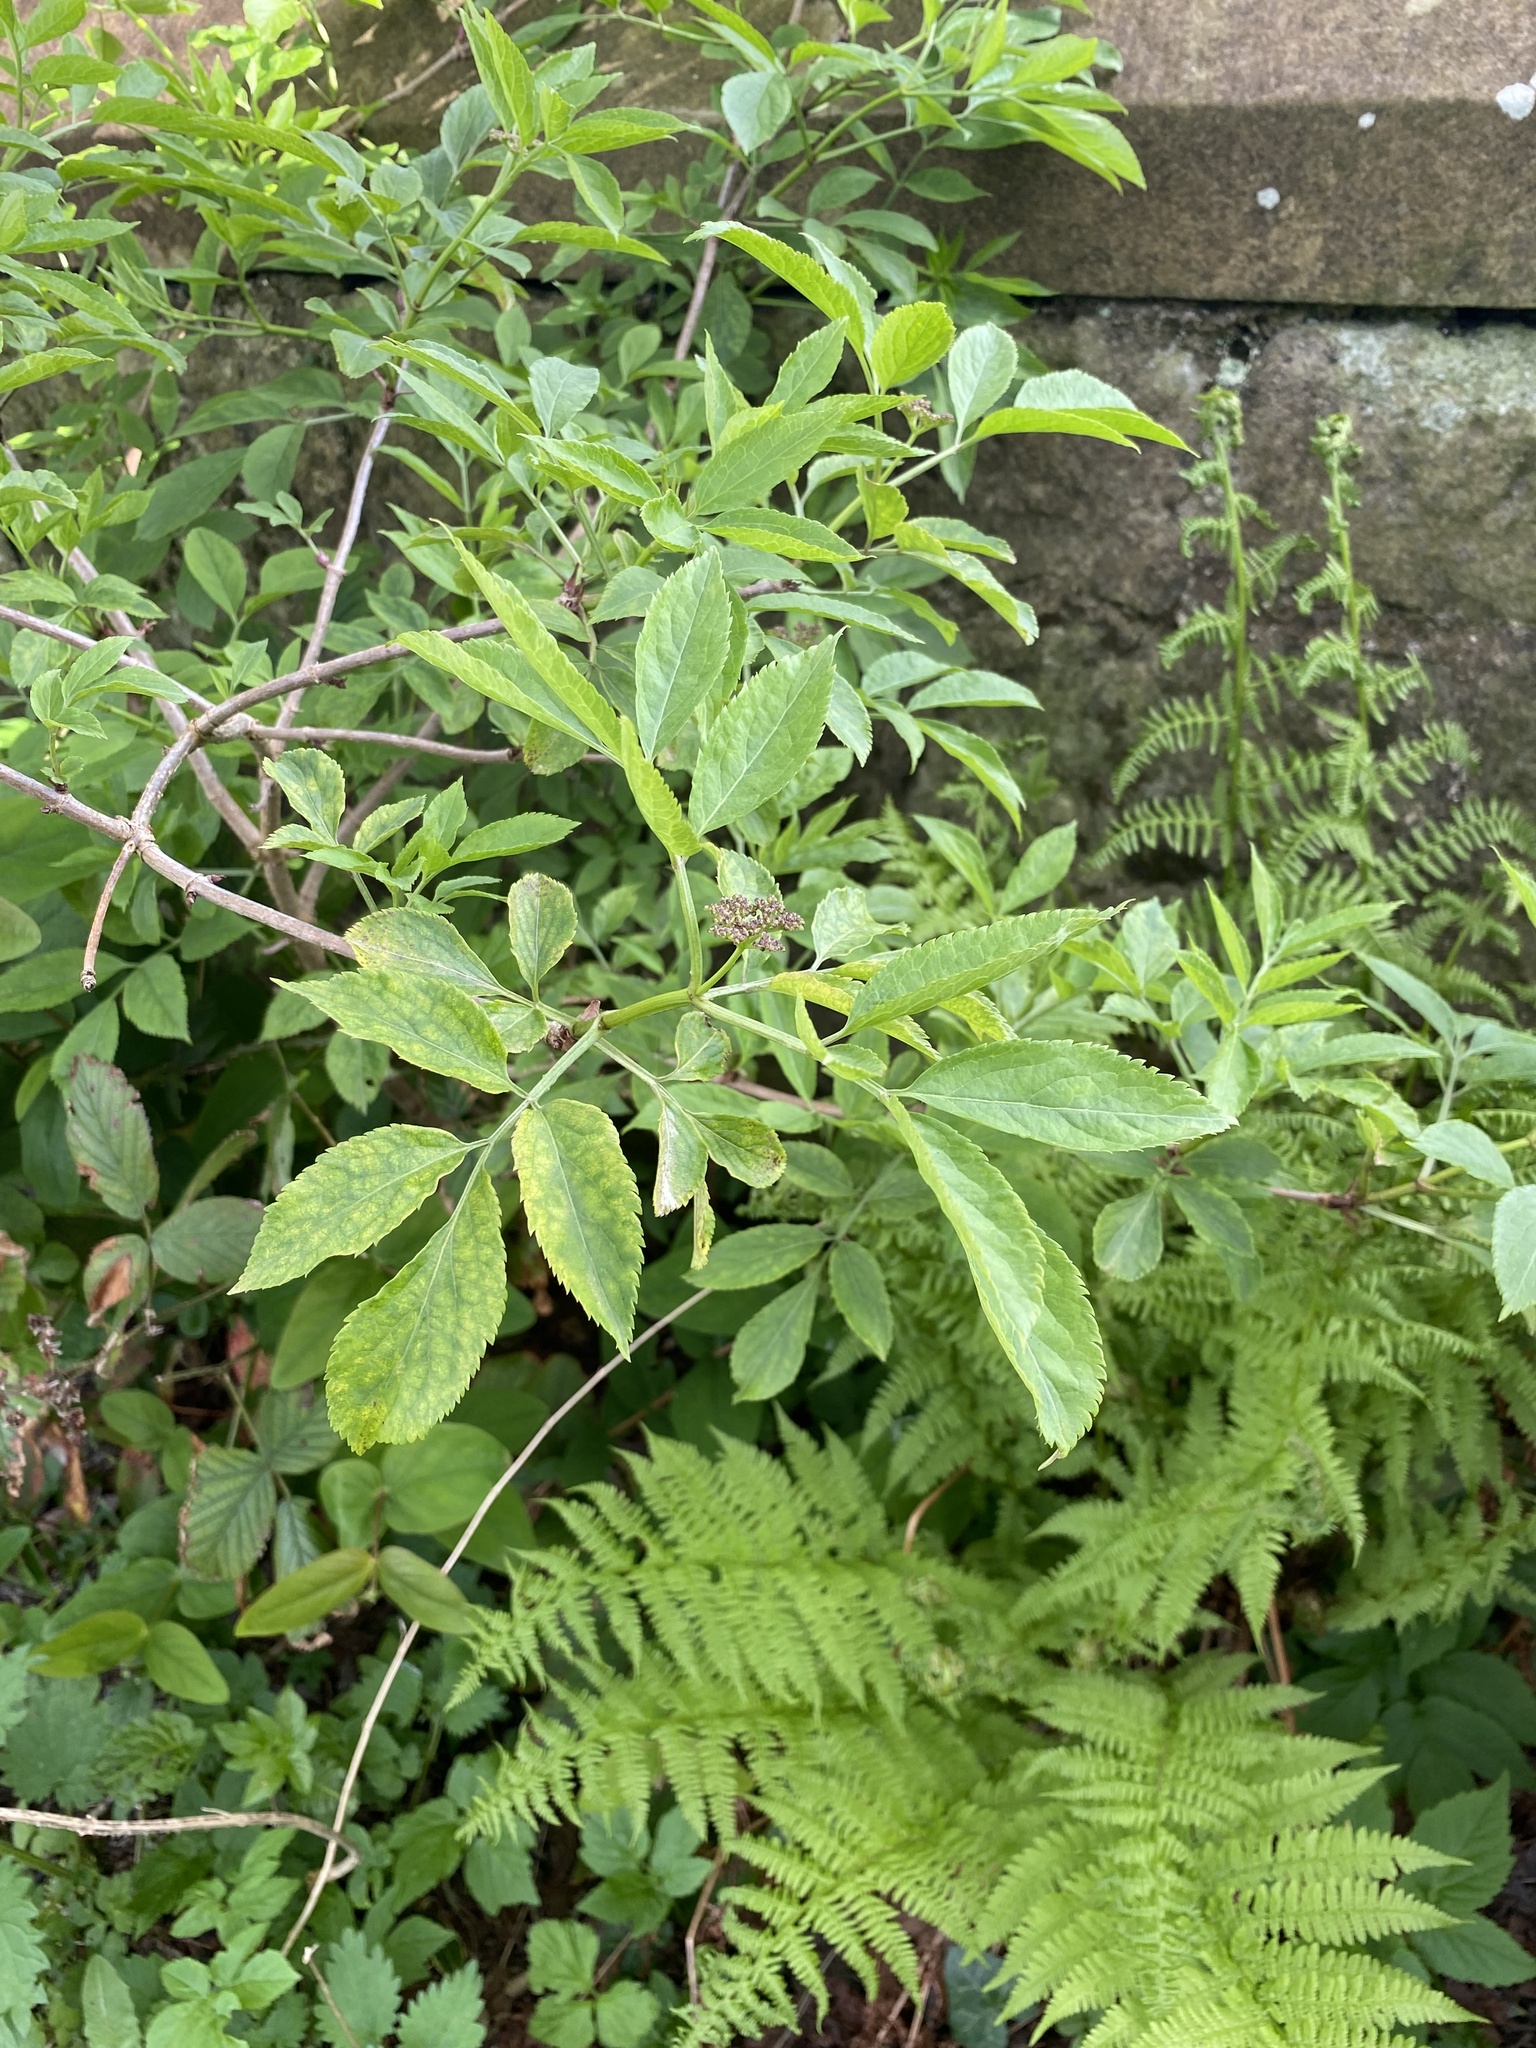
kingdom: Plantae
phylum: Tracheophyta
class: Magnoliopsida
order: Dipsacales
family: Viburnaceae
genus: Sambucus
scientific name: Sambucus nigra
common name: Elder
